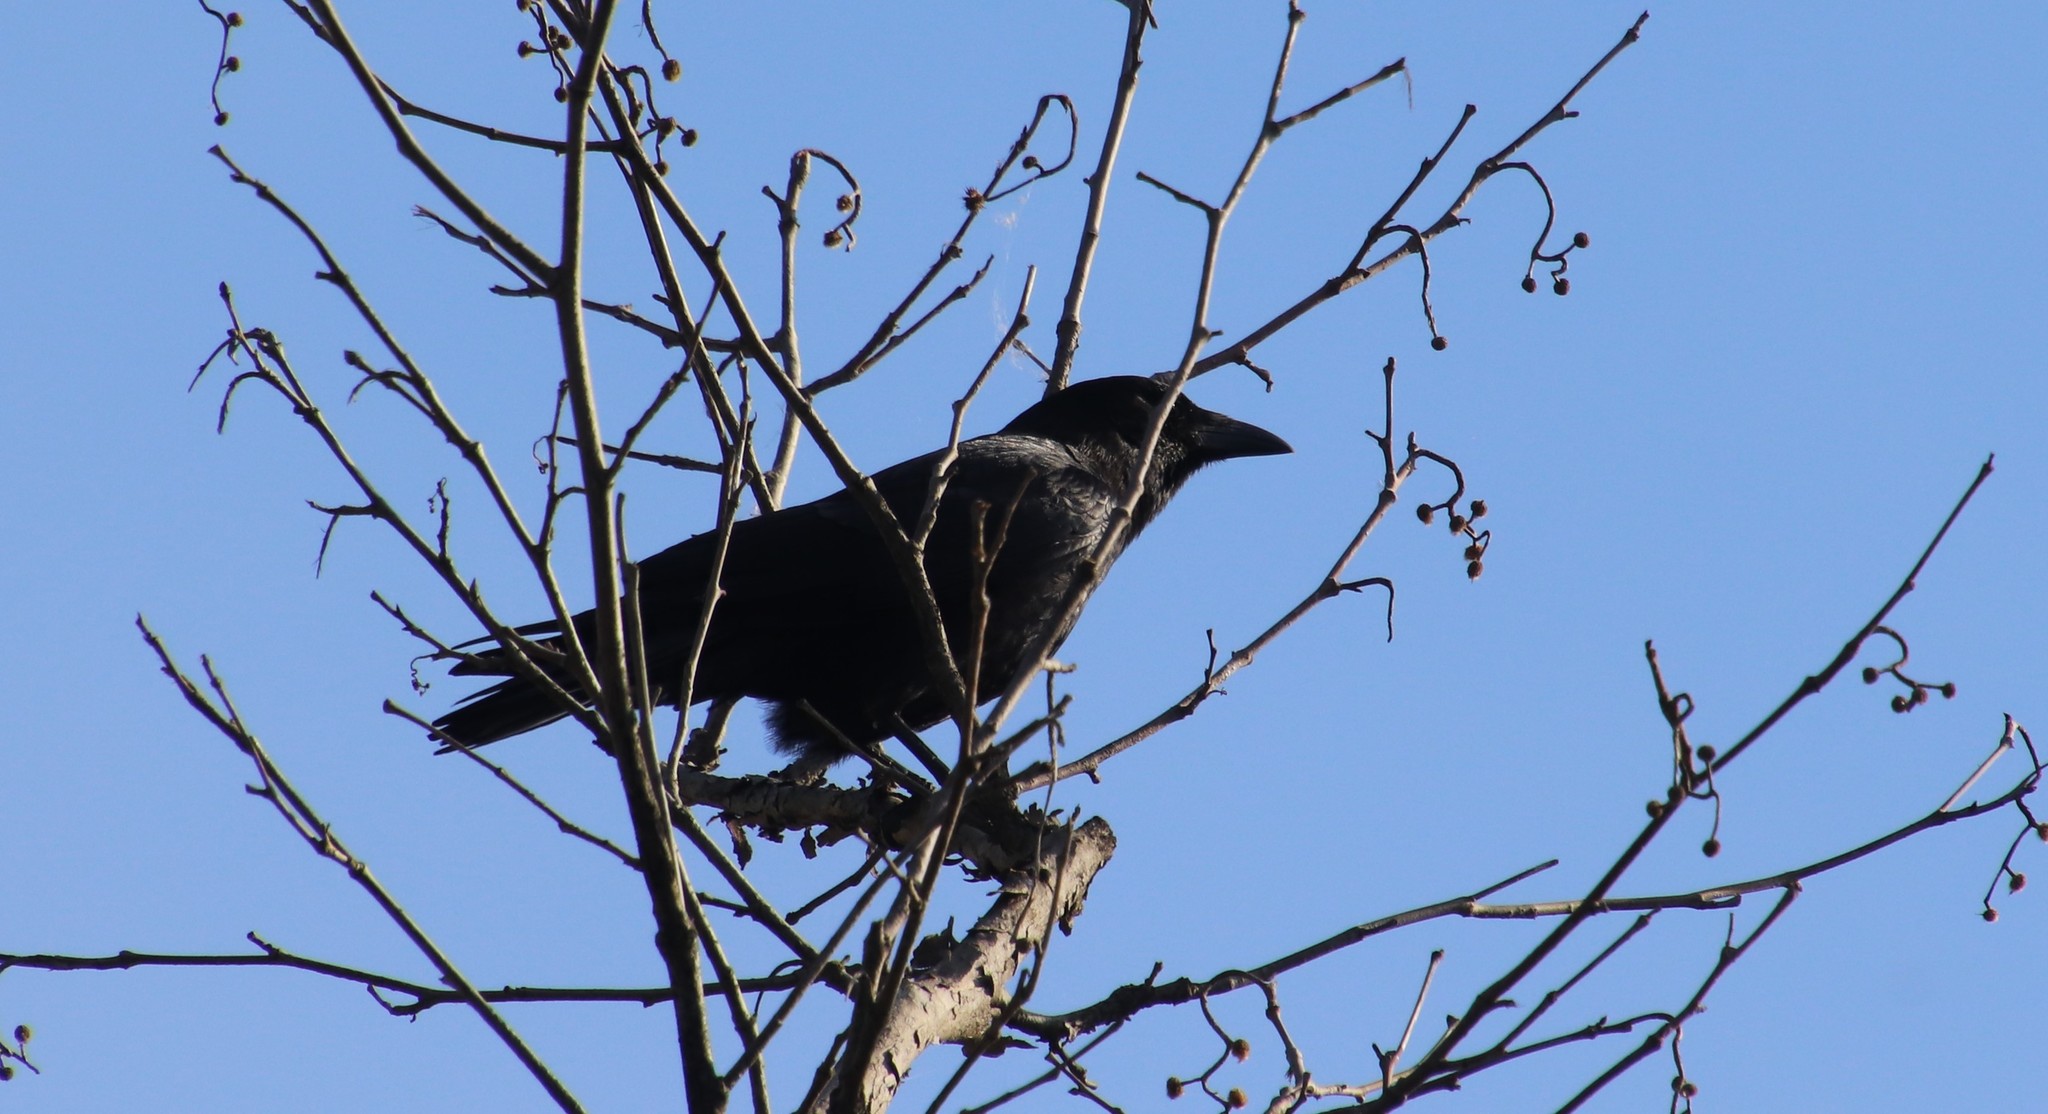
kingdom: Animalia
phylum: Chordata
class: Aves
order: Passeriformes
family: Corvidae
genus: Corvus
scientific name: Corvus brachyrhynchos
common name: American crow
